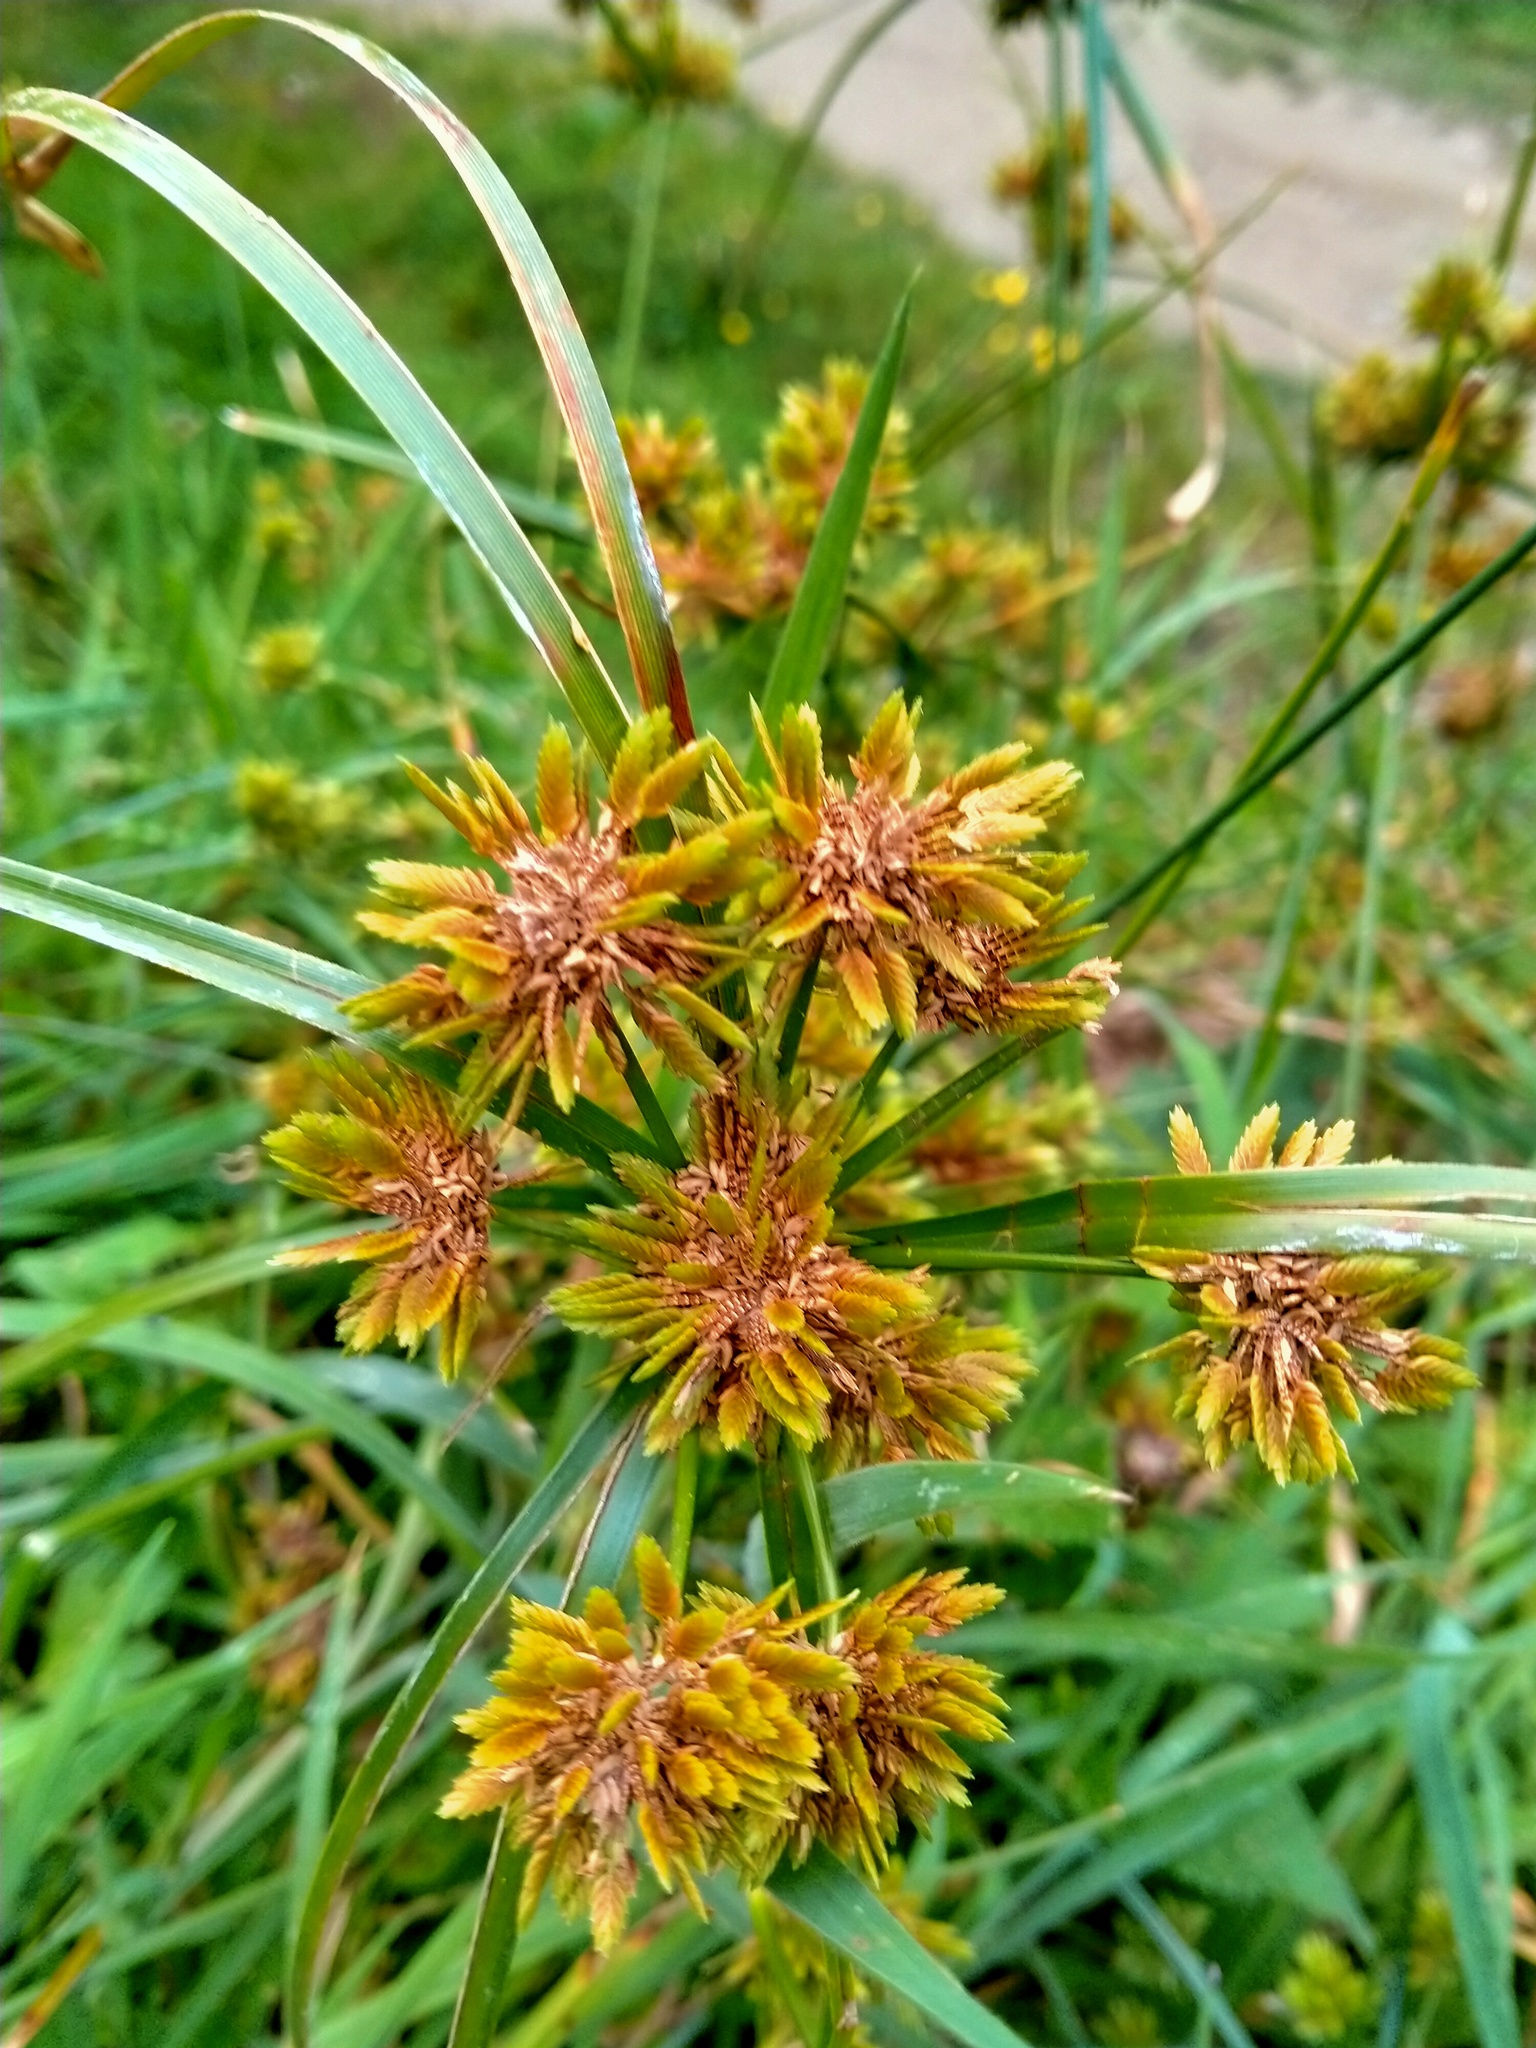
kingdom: Plantae
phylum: Tracheophyta
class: Liliopsida
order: Poales
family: Cyperaceae
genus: Cyperus
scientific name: Cyperus eragrostis
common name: Tall flatsedge
